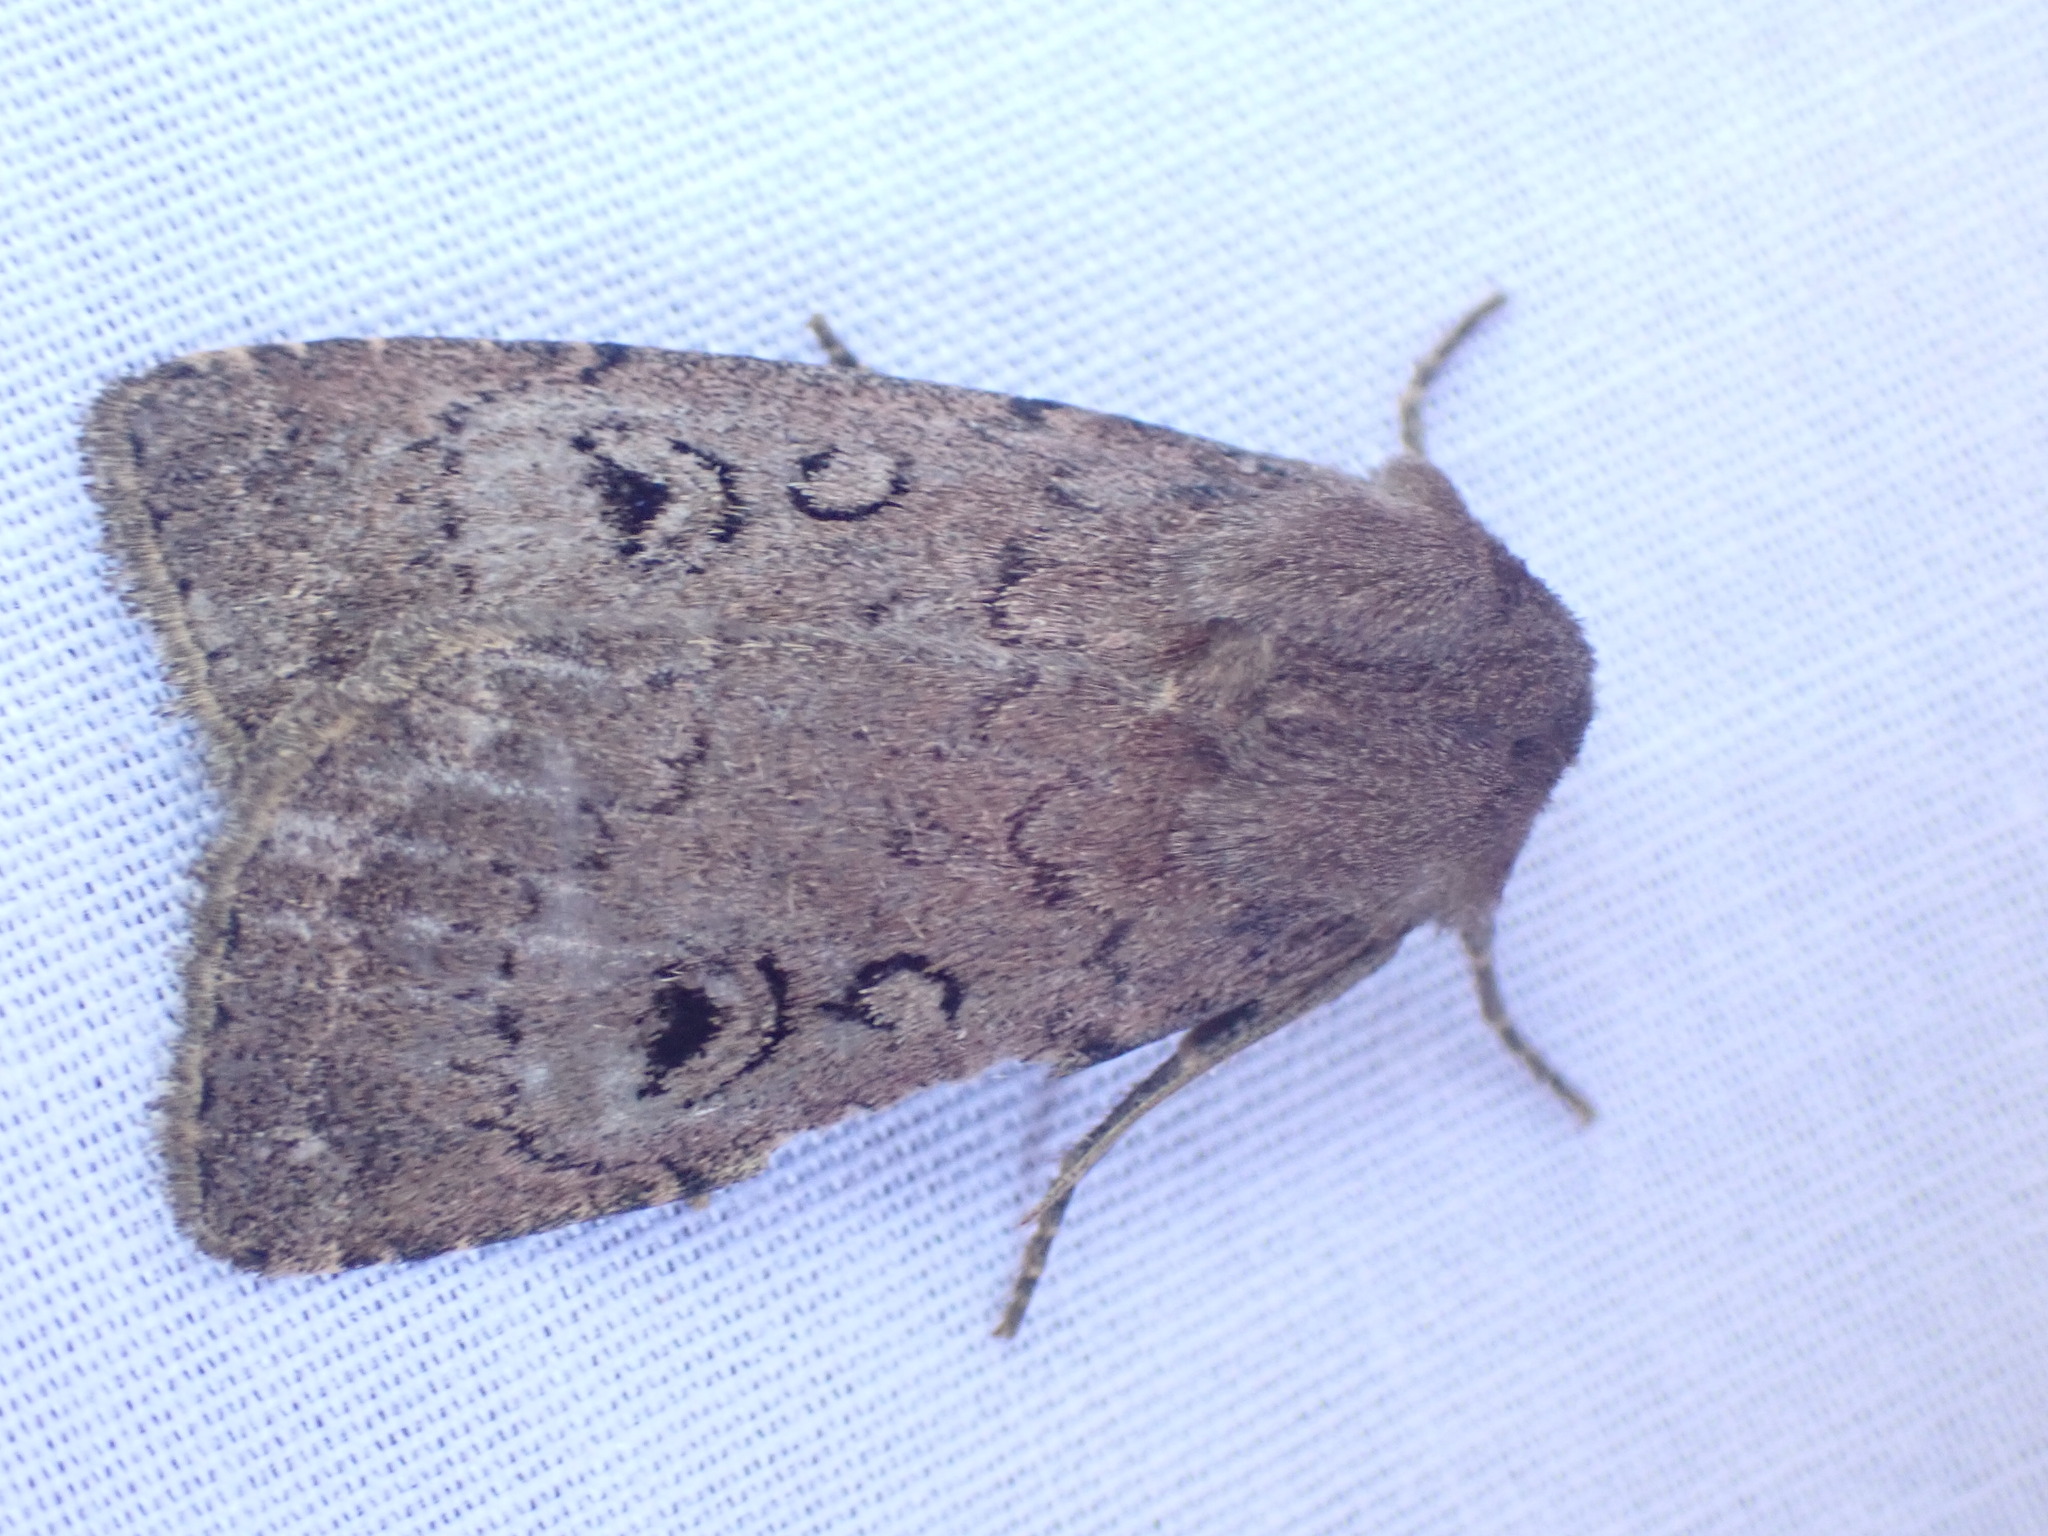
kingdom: Animalia
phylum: Arthropoda
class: Insecta
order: Lepidoptera
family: Noctuidae
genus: Graphiphora
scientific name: Graphiphora augur
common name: Double dart
